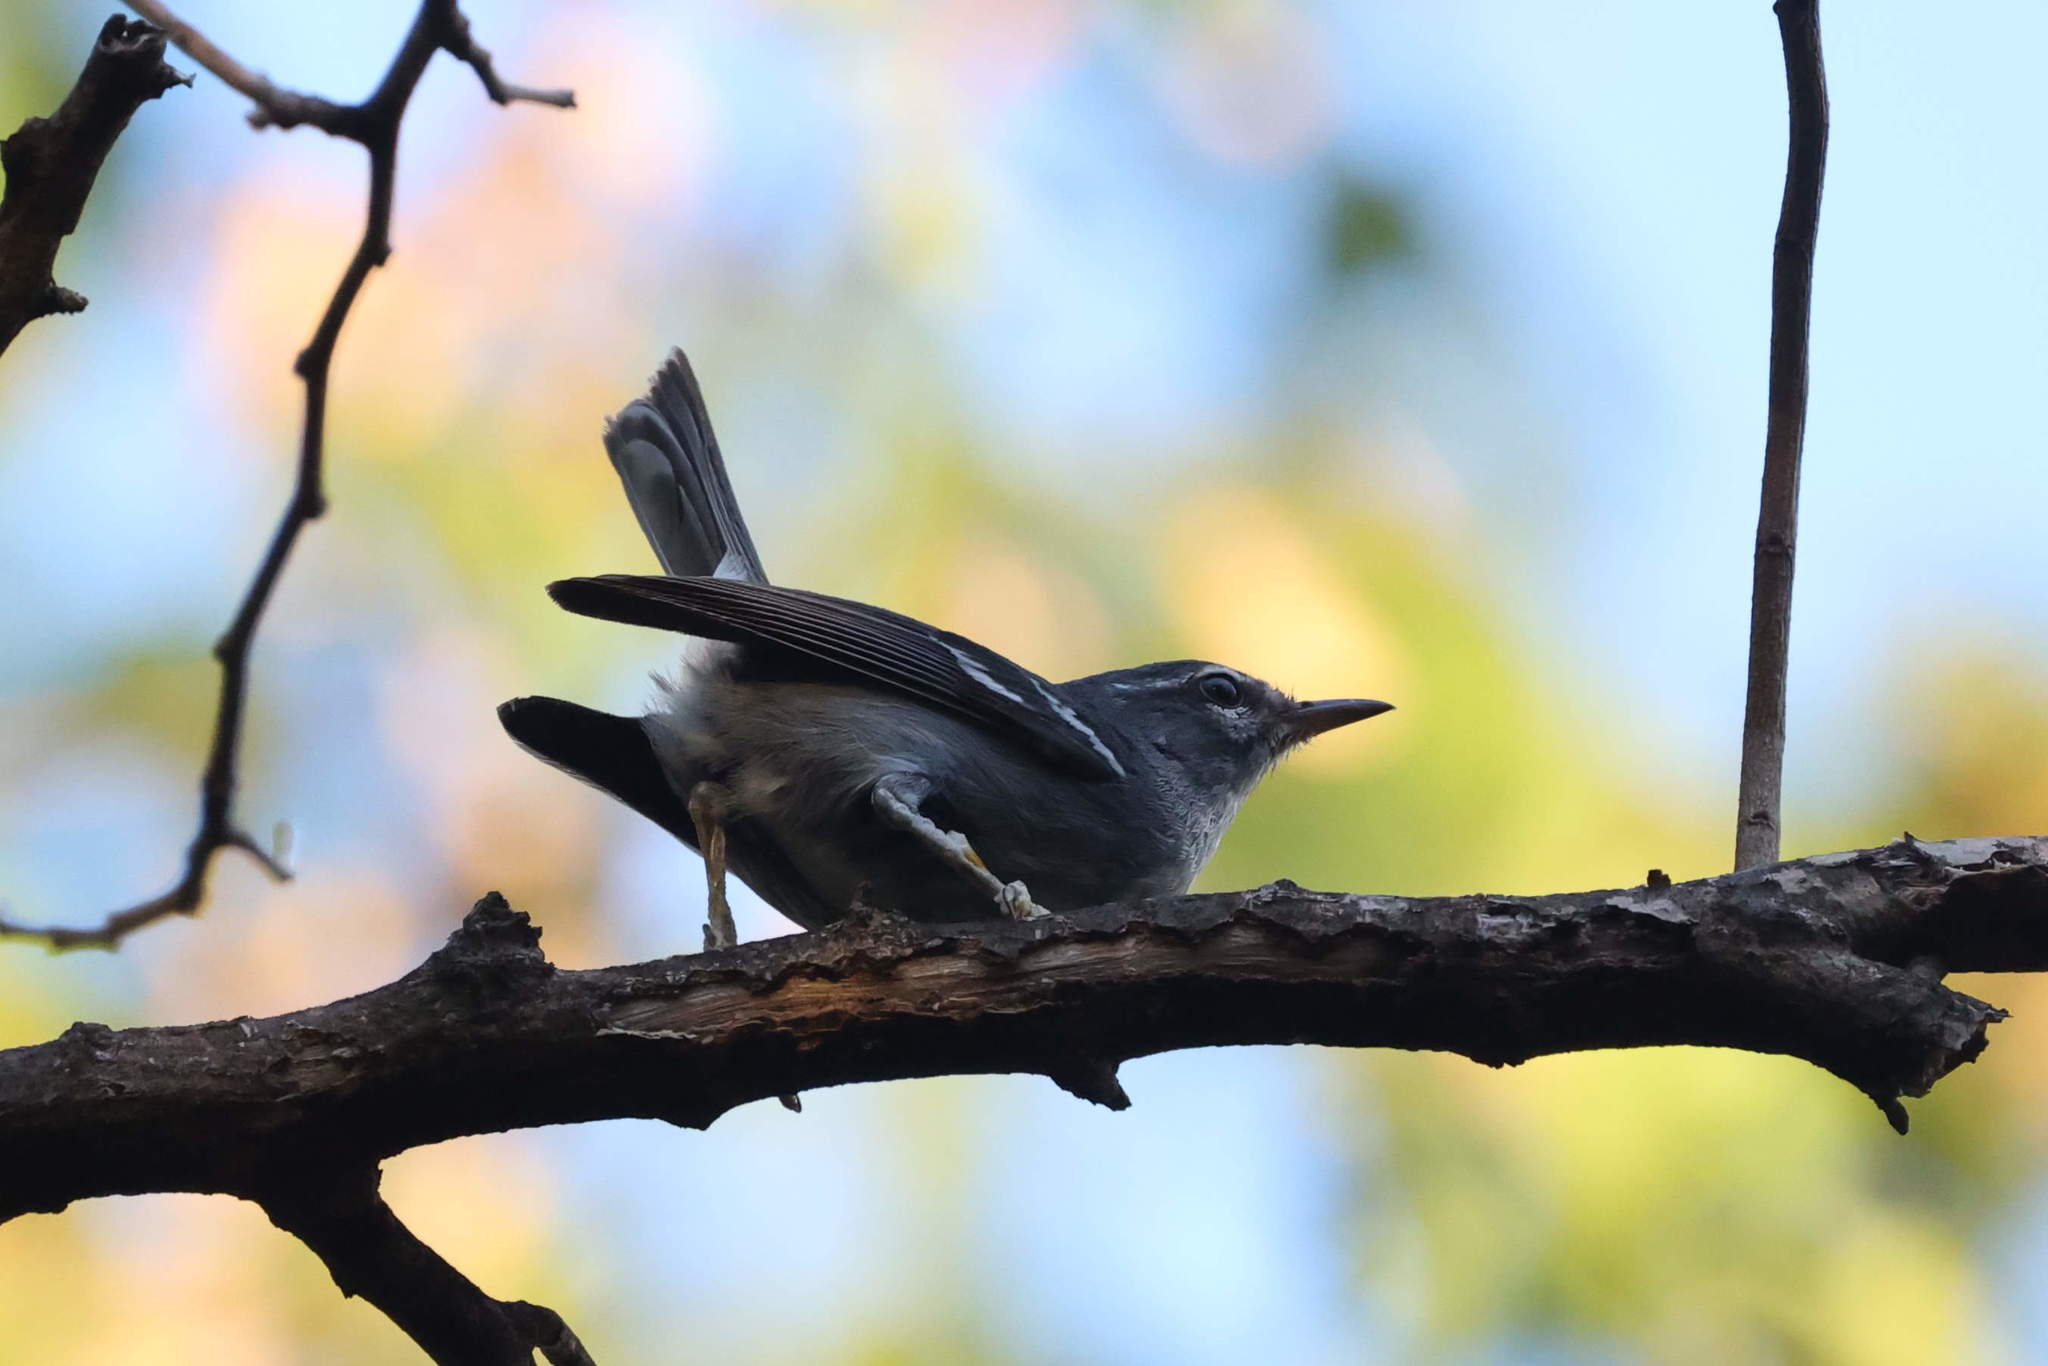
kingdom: Animalia
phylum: Chordata
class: Aves
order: Passeriformes
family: Parulidae
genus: Setophaga
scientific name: Setophaga plumbea
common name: Plumbeous warbler
